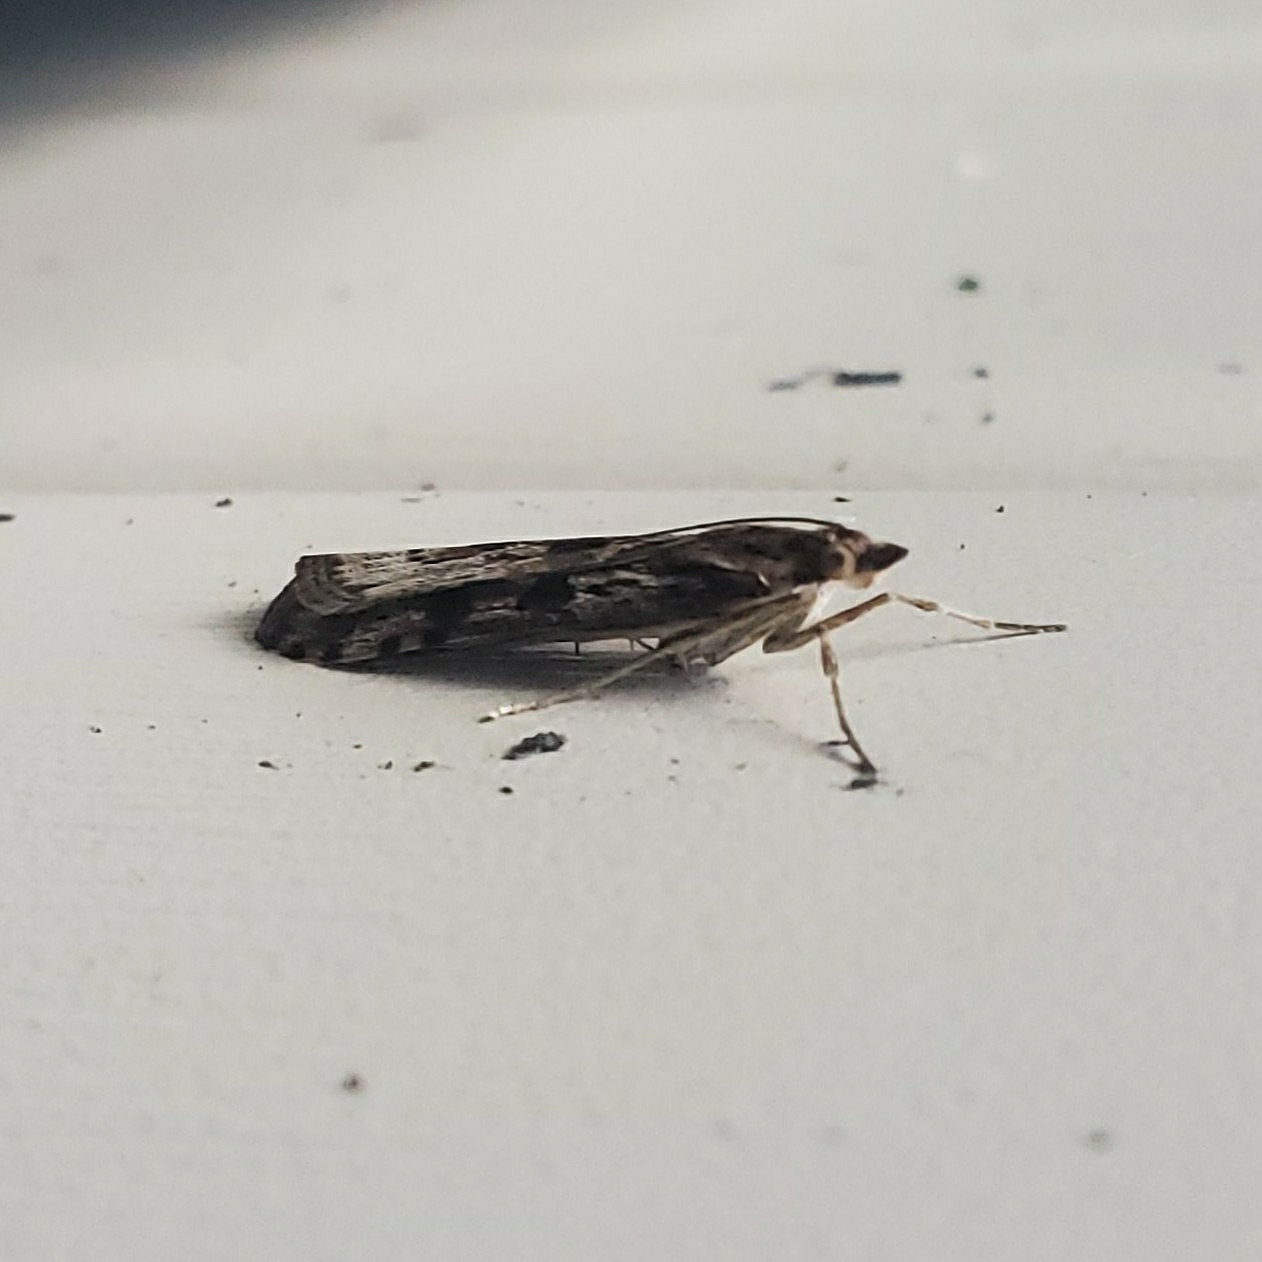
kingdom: Animalia
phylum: Arthropoda
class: Insecta
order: Lepidoptera
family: Crambidae
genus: Nomophila
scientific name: Nomophila nearctica
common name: American rush veneer
